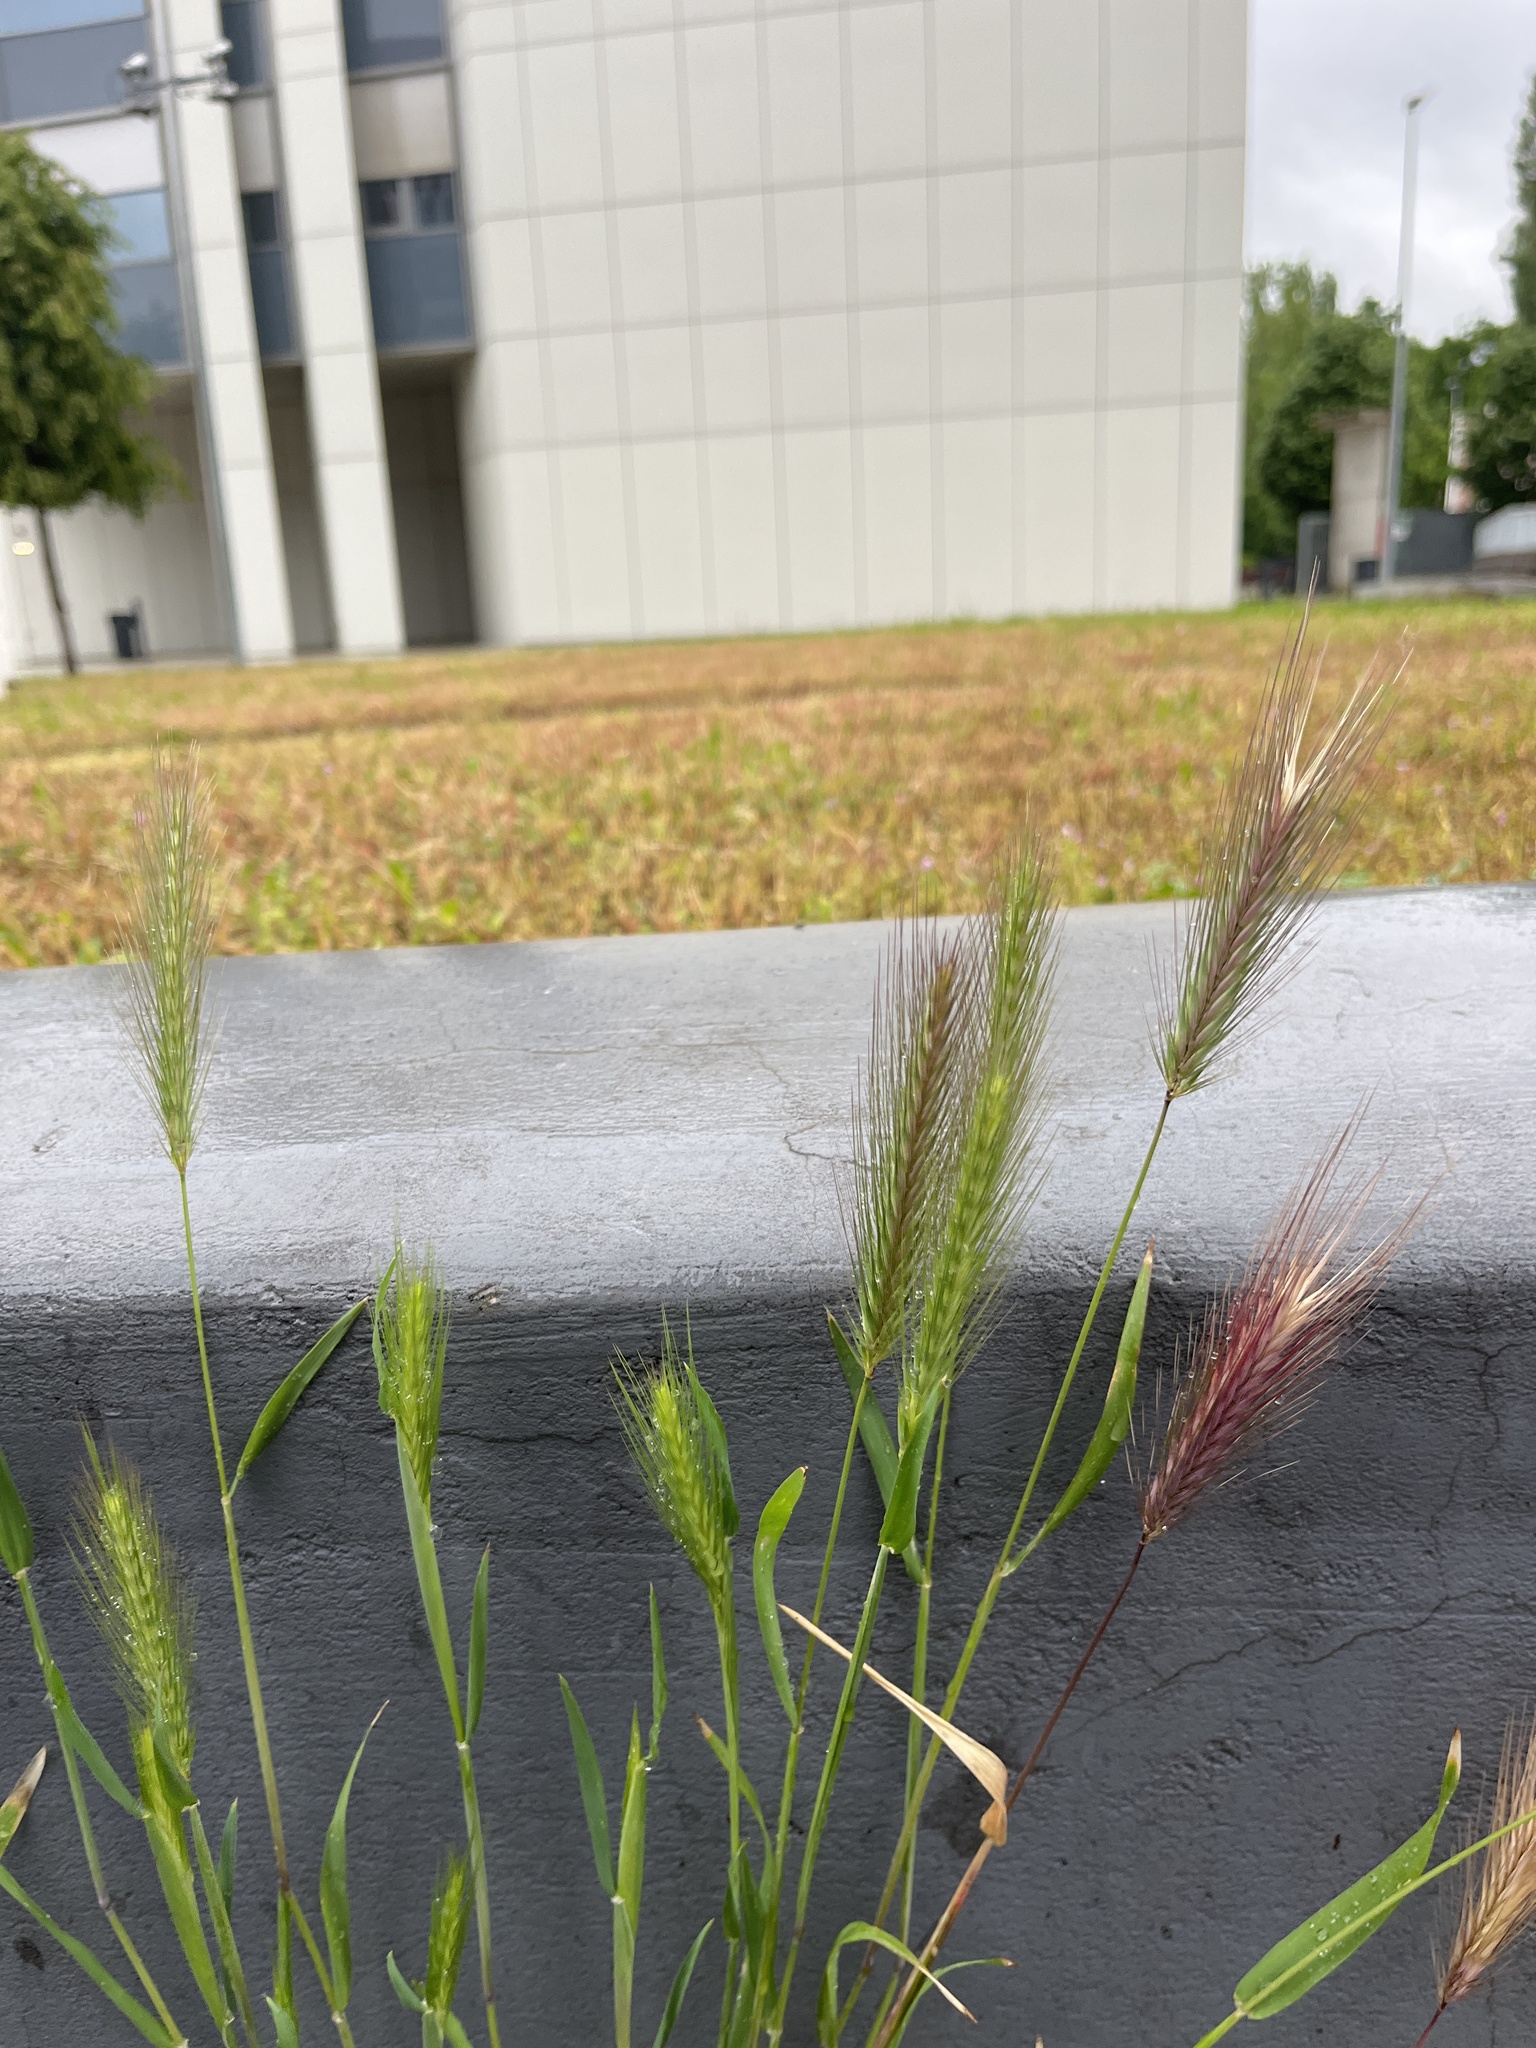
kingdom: Plantae
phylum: Tracheophyta
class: Liliopsida
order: Poales
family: Poaceae
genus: Hordeum
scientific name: Hordeum murinum
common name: Wall barley
